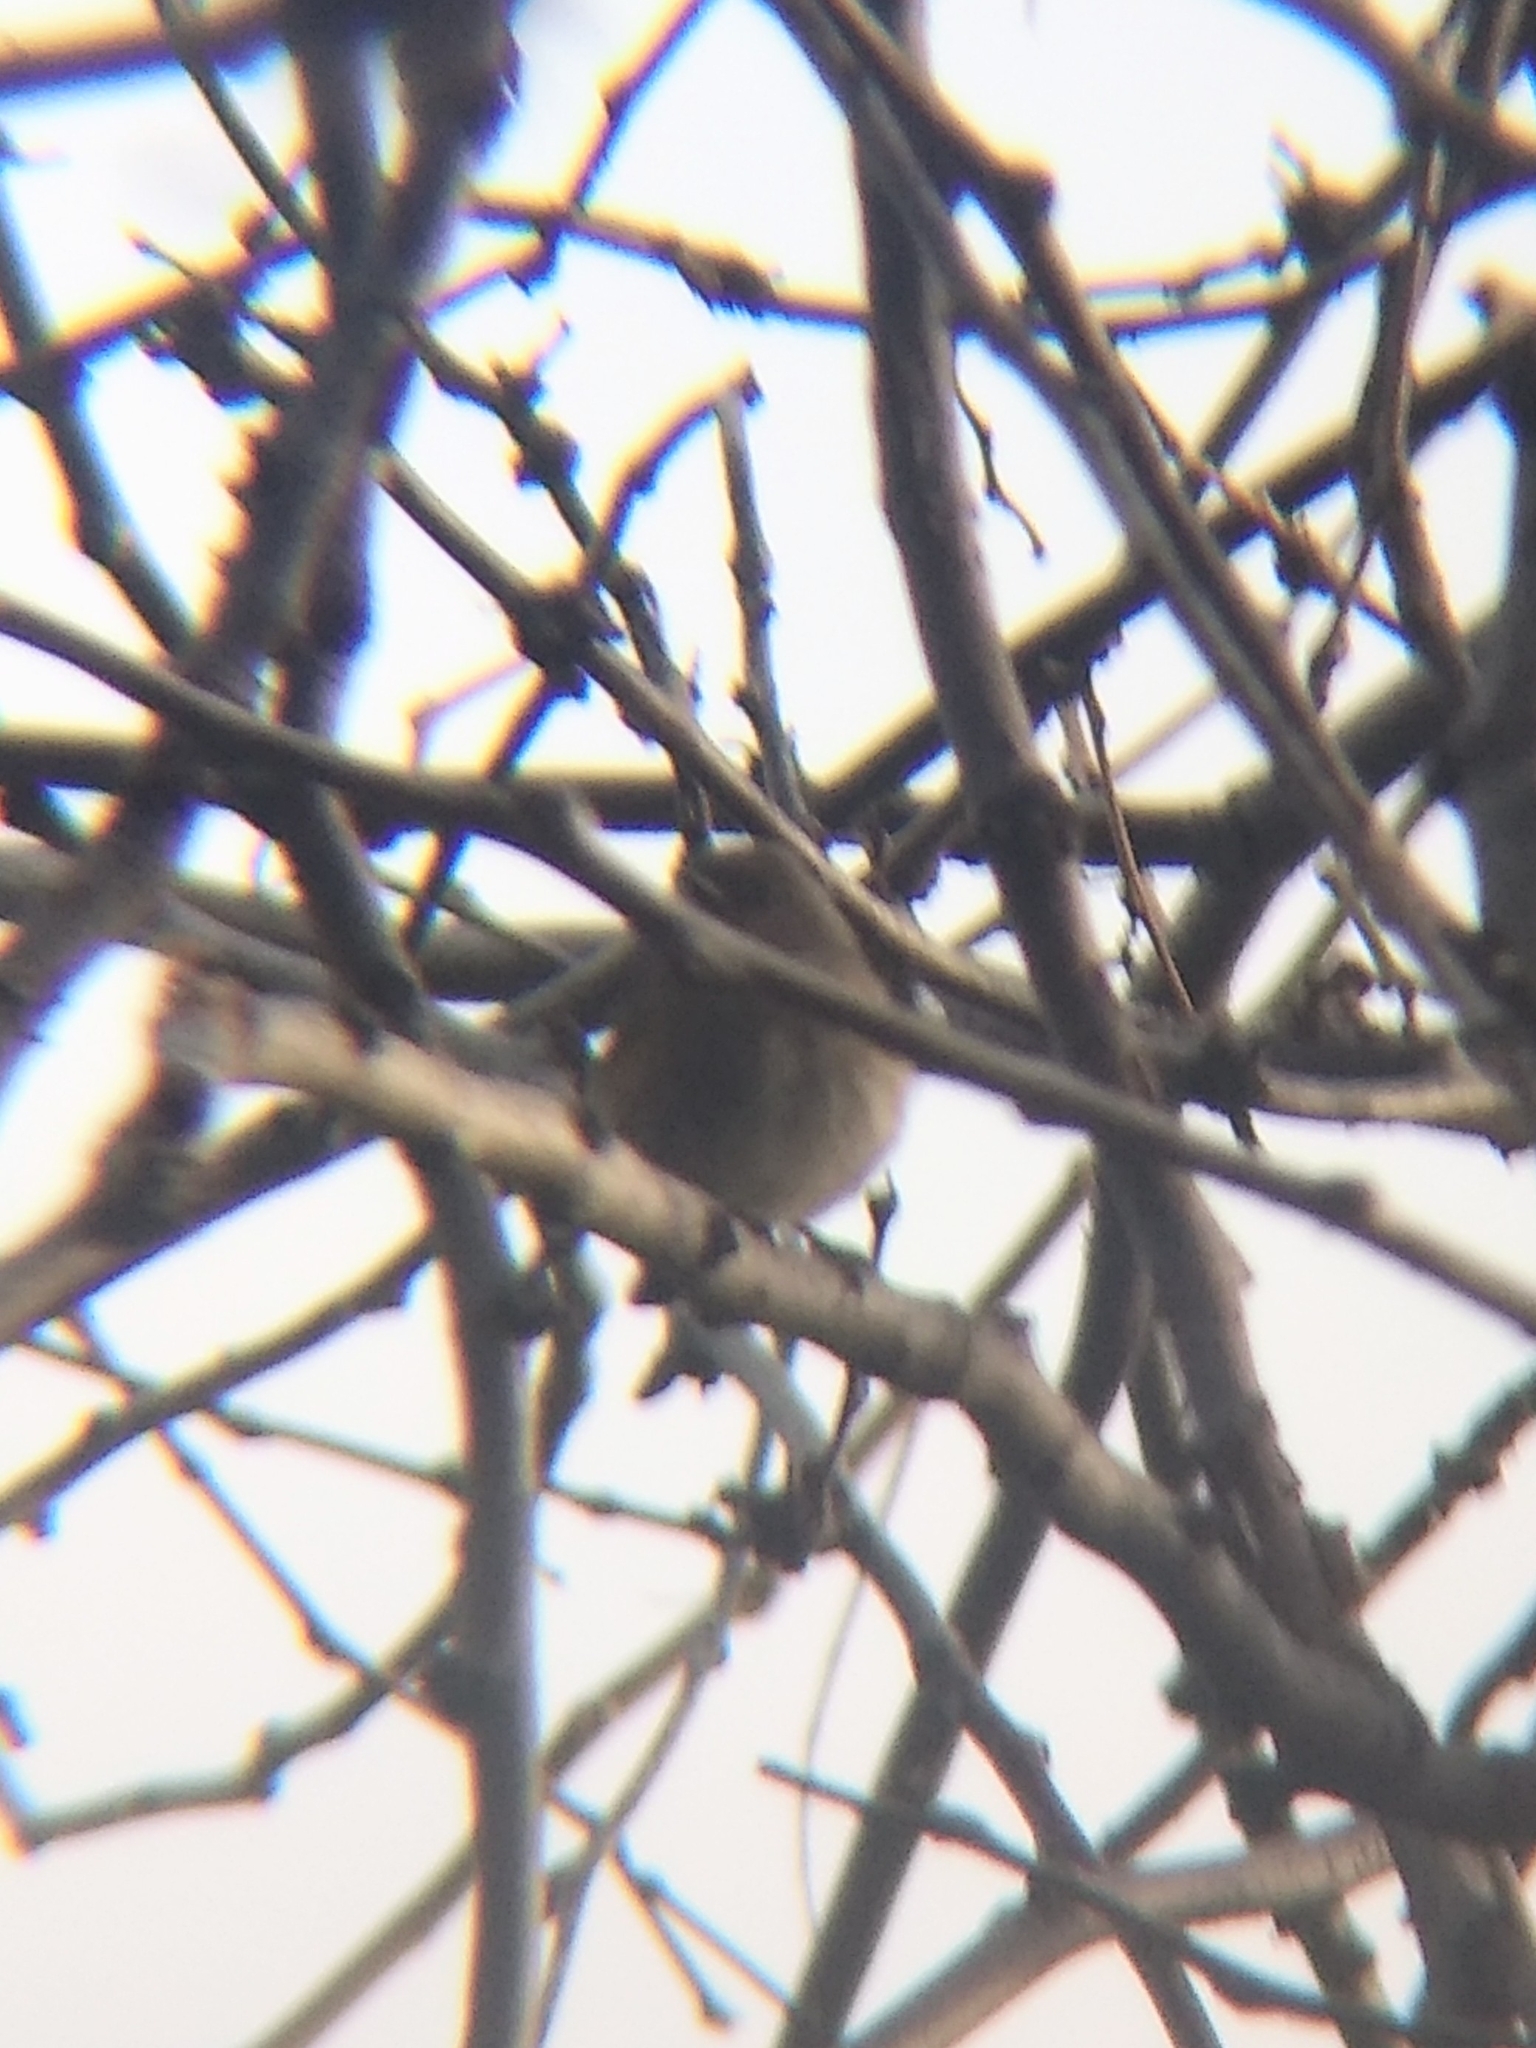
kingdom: Animalia
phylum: Chordata
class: Aves
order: Passeriformes
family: Parulidae
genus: Setophaga
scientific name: Setophaga coronata
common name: Myrtle warbler
